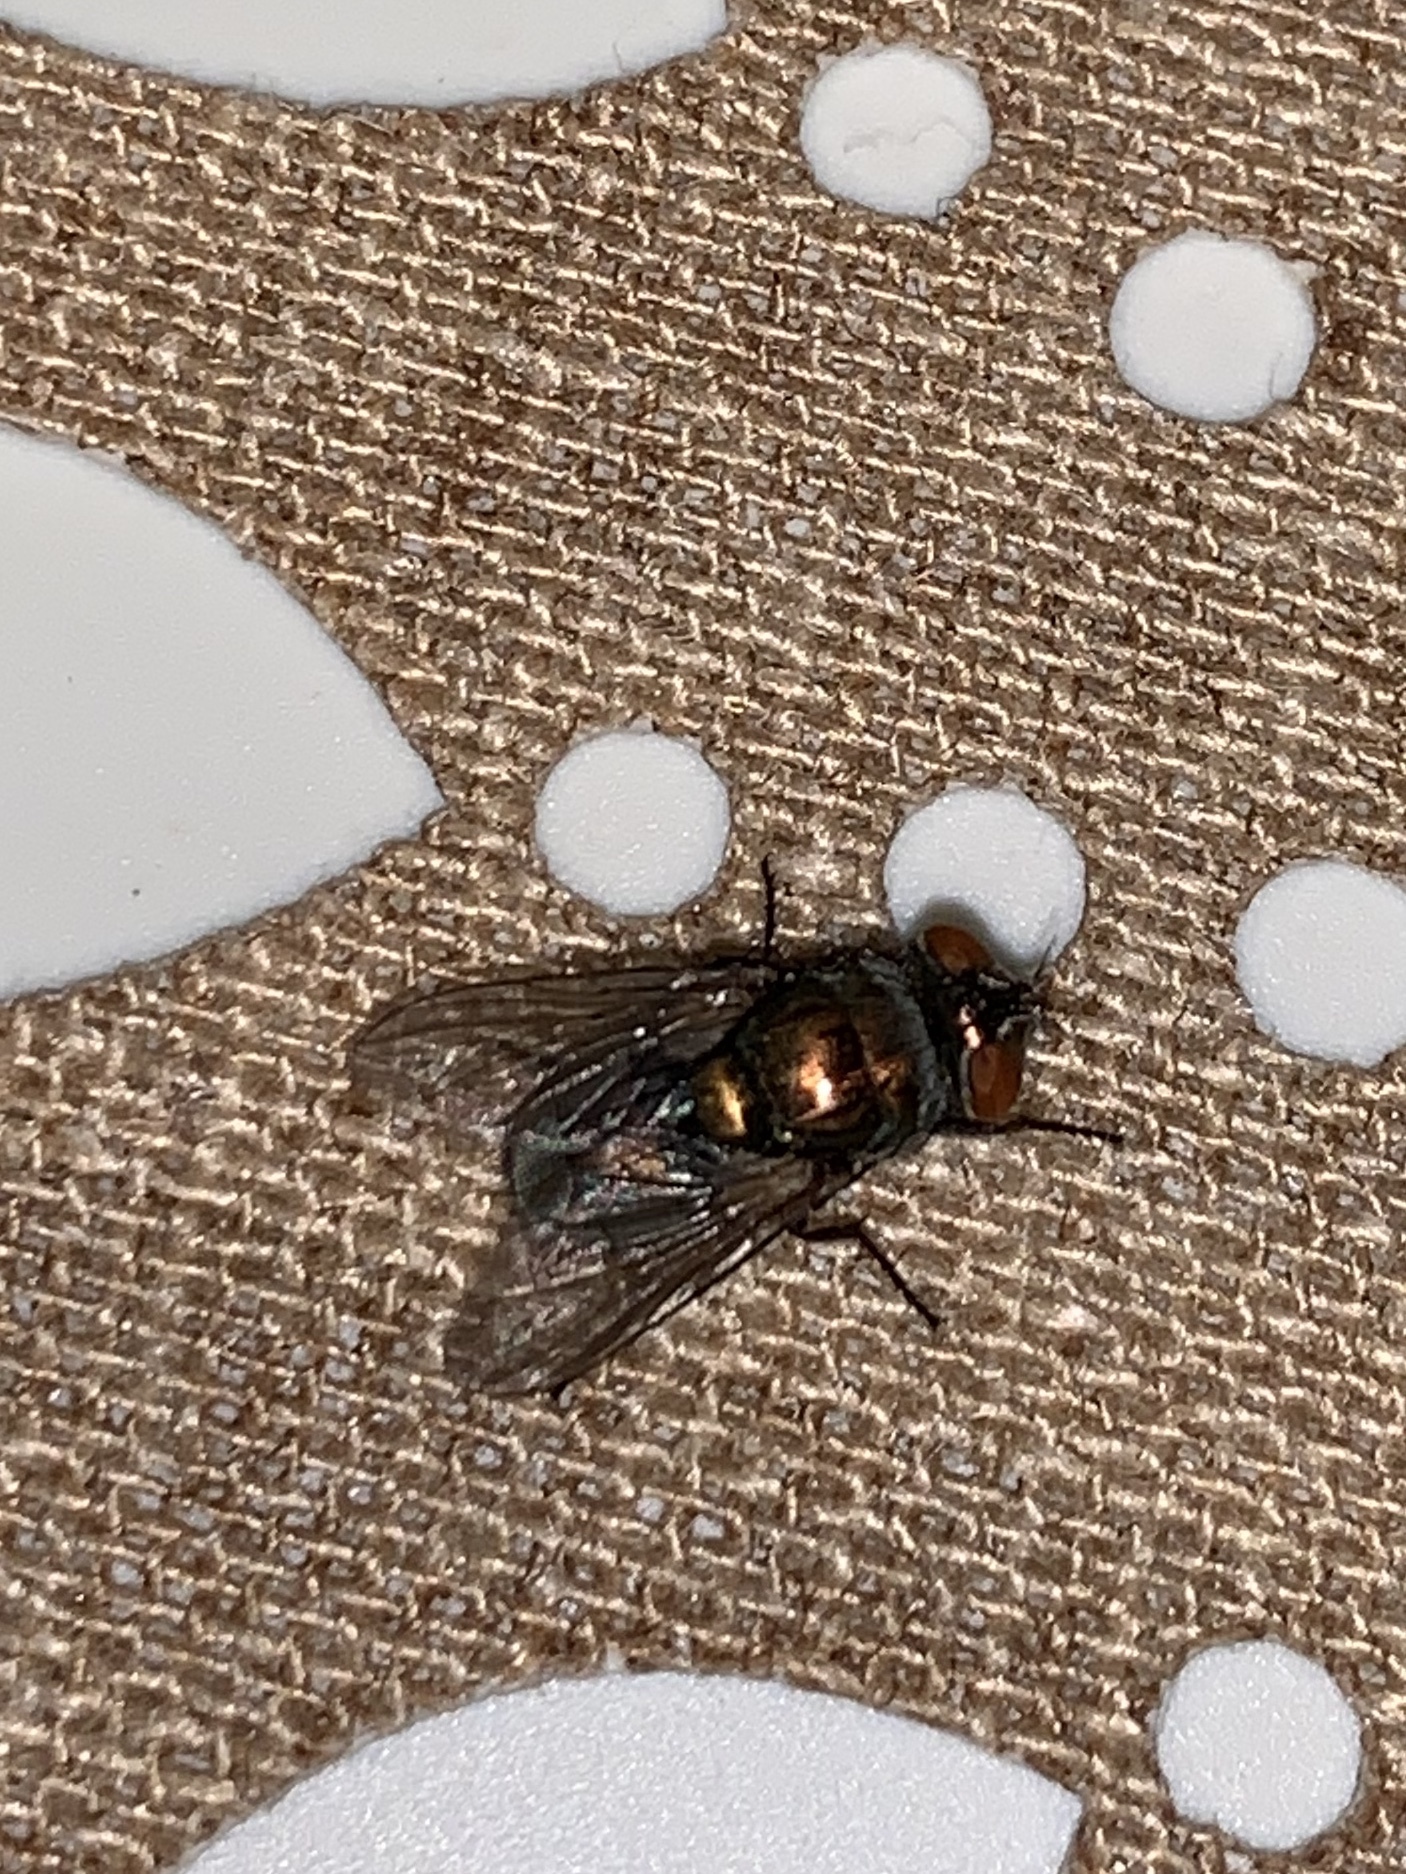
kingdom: Animalia
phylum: Arthropoda
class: Insecta
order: Diptera
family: Calliphoridae
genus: Lucilia
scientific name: Lucilia cuprina
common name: Sheep blow fly
